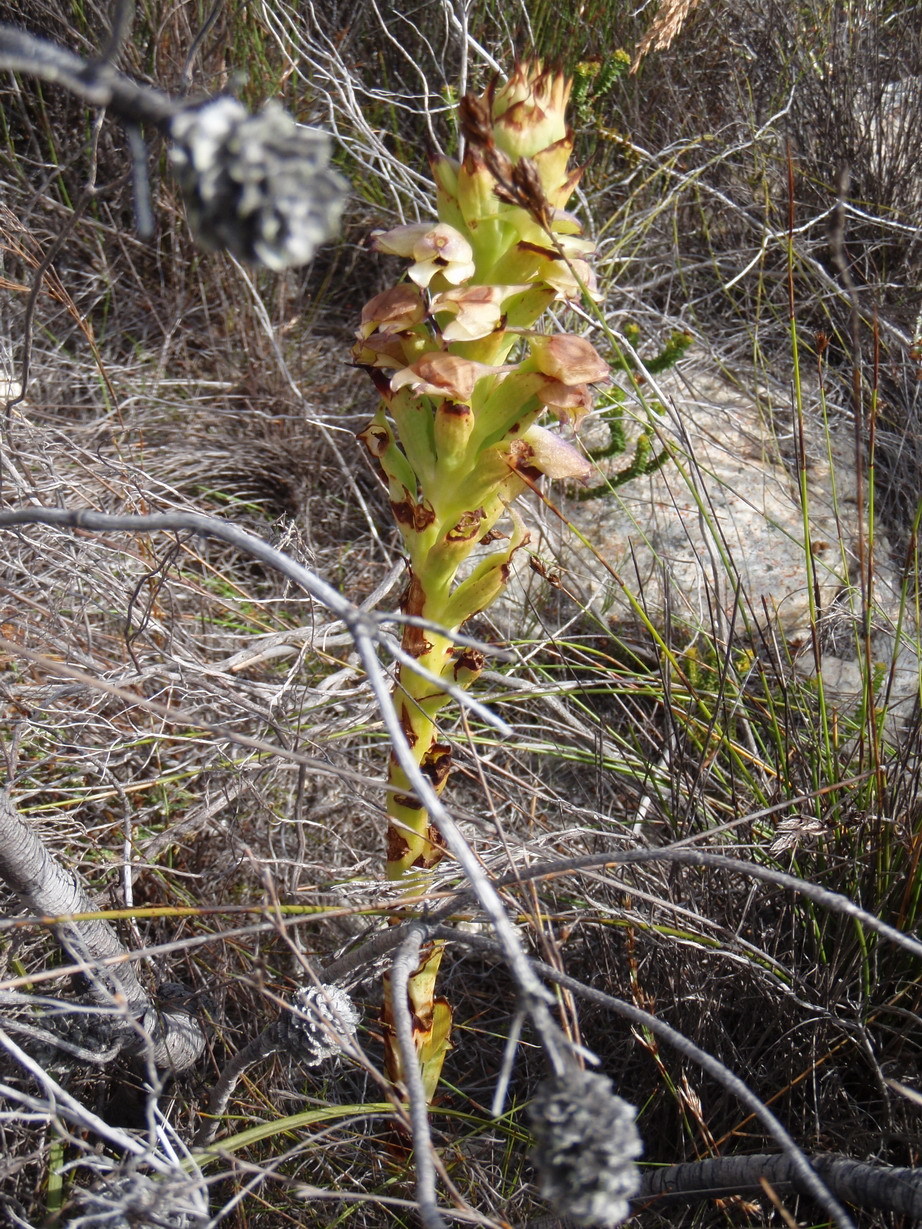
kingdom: Plantae
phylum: Tracheophyta
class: Liliopsida
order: Asparagales
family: Orchidaceae
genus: Disa
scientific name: Disa cornuta
